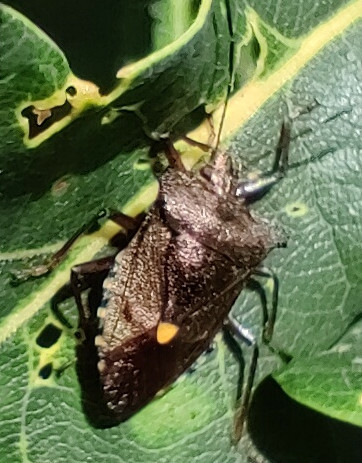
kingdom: Animalia
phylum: Arthropoda
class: Insecta
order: Hemiptera
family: Pentatomidae
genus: Pentatoma
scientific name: Pentatoma rufipes
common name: Forest bug
